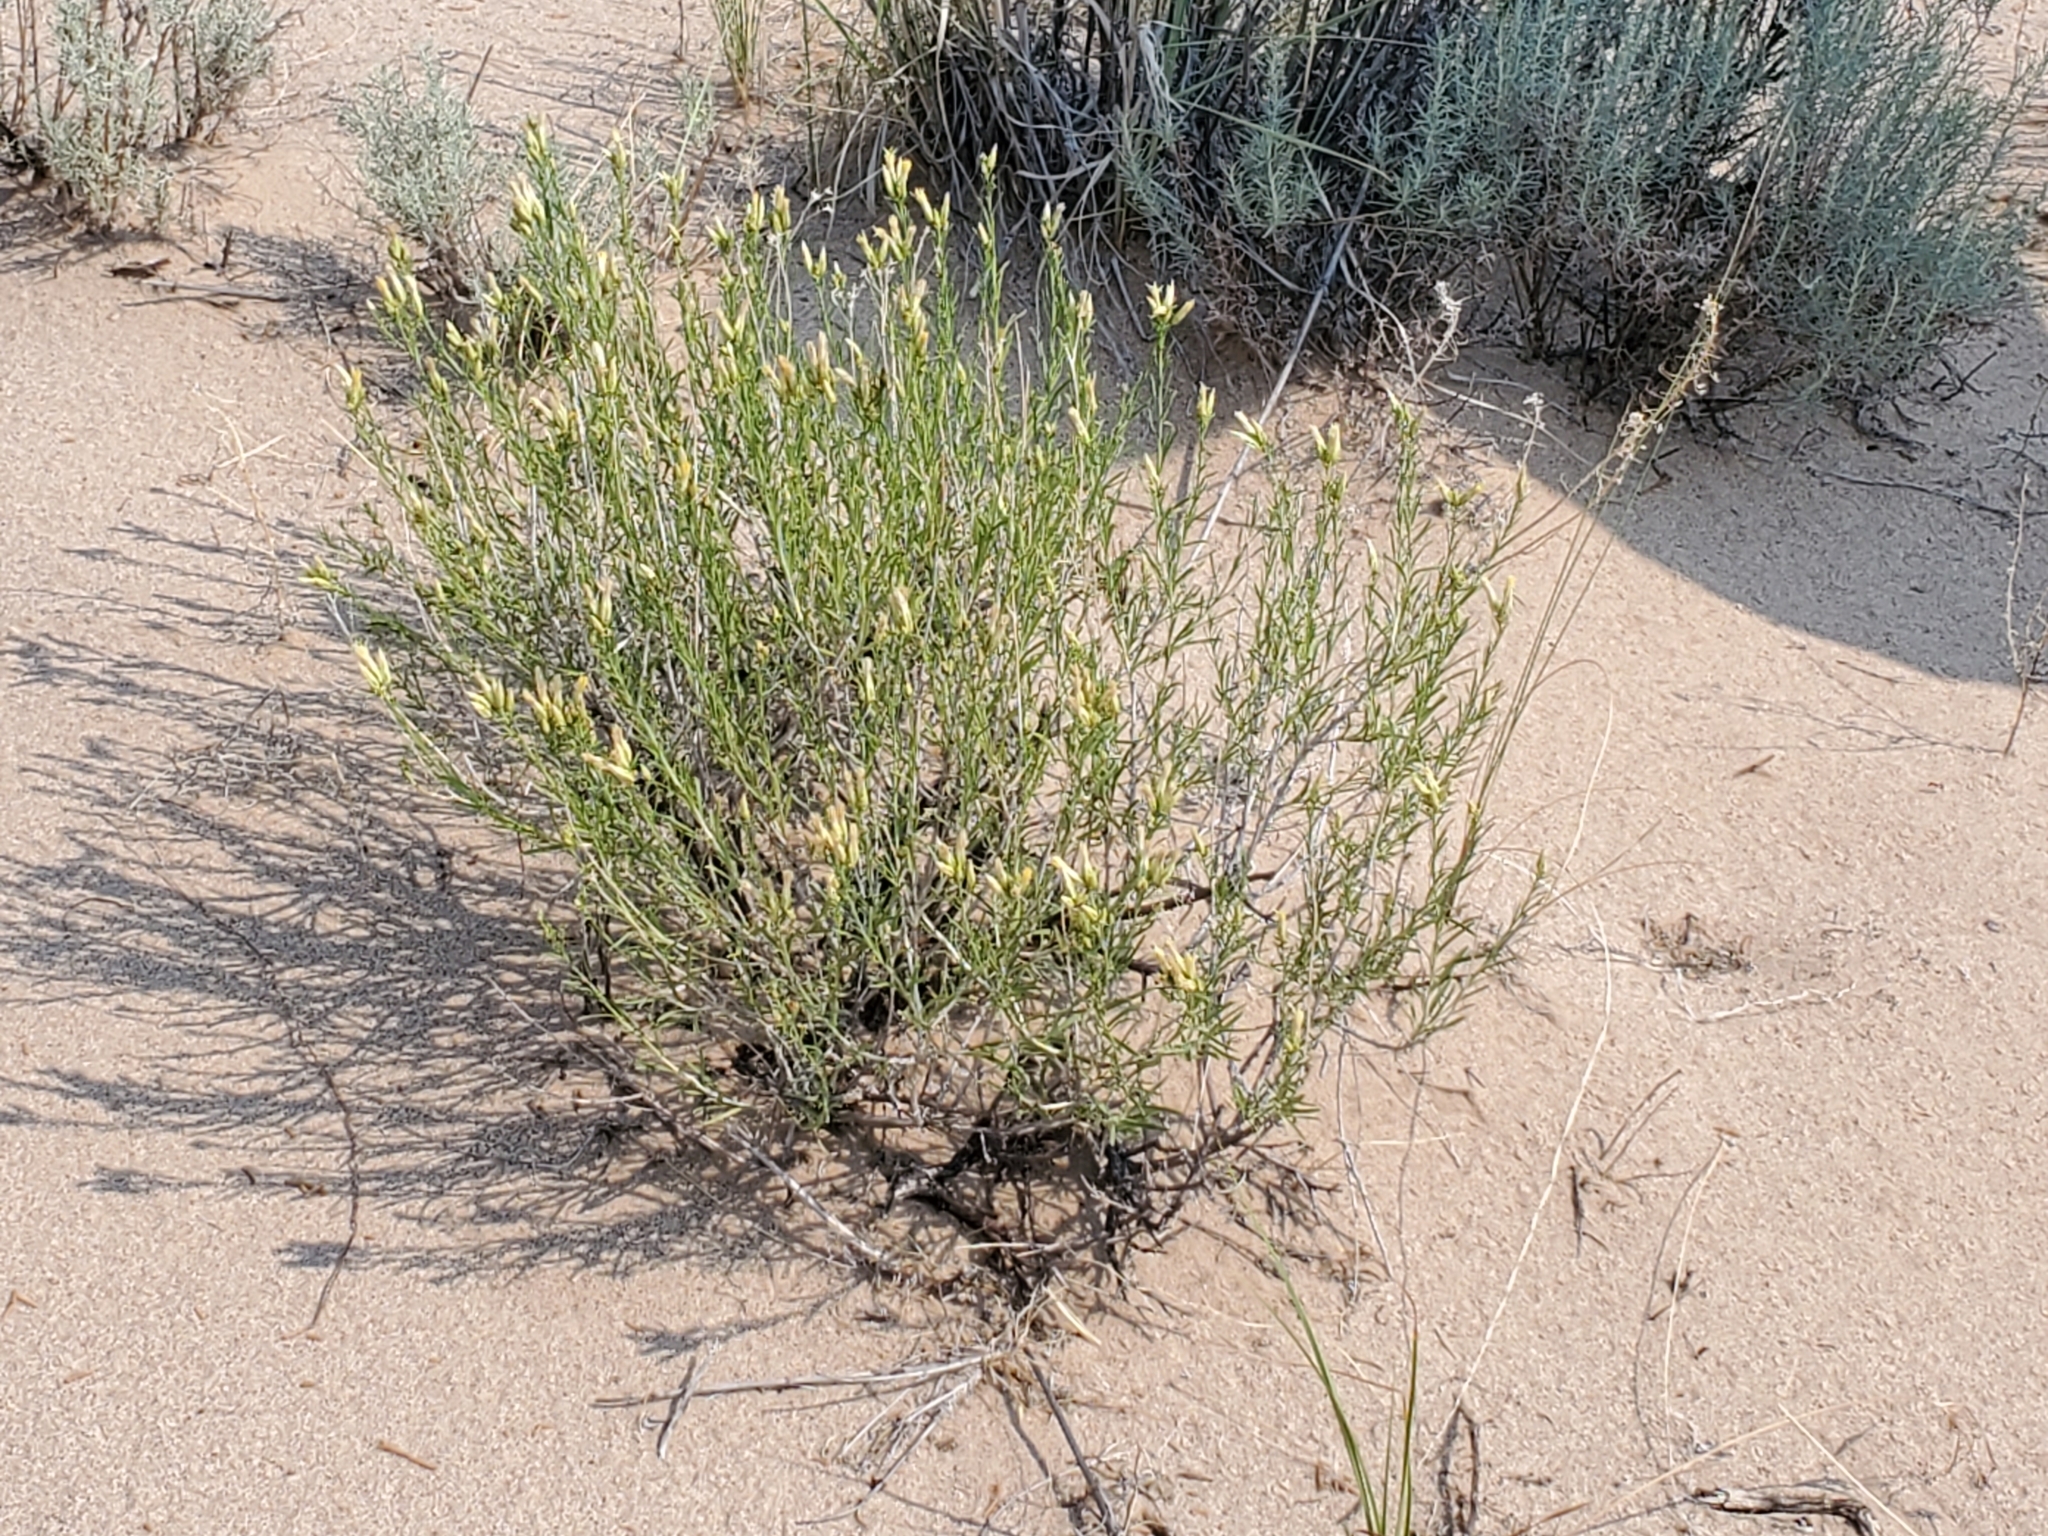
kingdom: Plantae
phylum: Tracheophyta
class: Magnoliopsida
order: Asterales
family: Asteraceae
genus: Lorandersonia
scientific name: Lorandersonia baileyi
